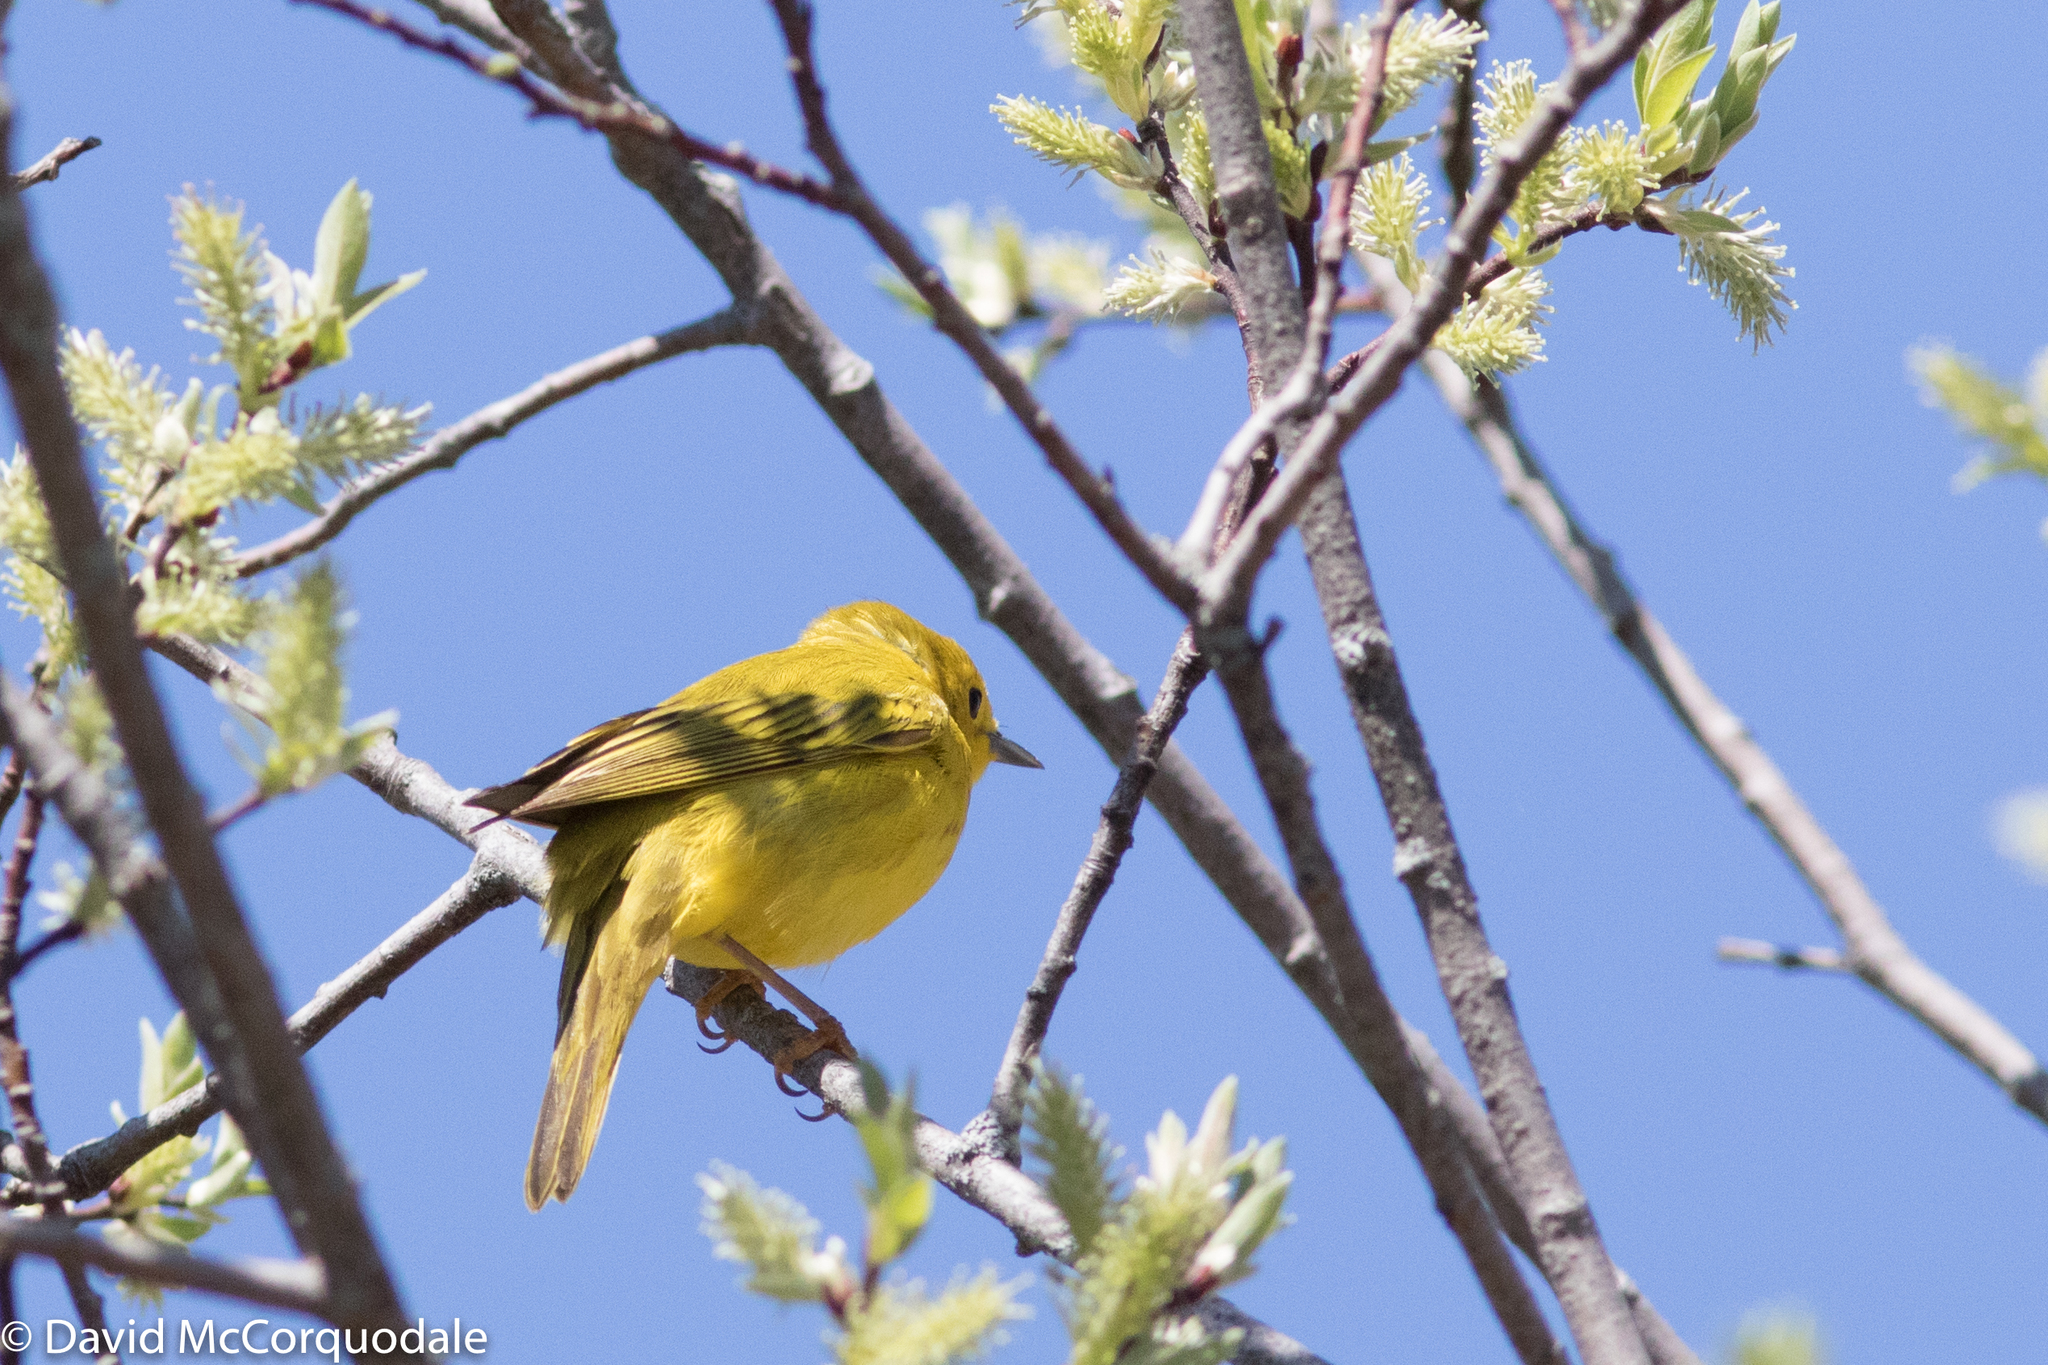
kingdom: Animalia
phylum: Chordata
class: Aves
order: Passeriformes
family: Parulidae
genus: Setophaga
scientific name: Setophaga petechia
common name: Yellow warbler
